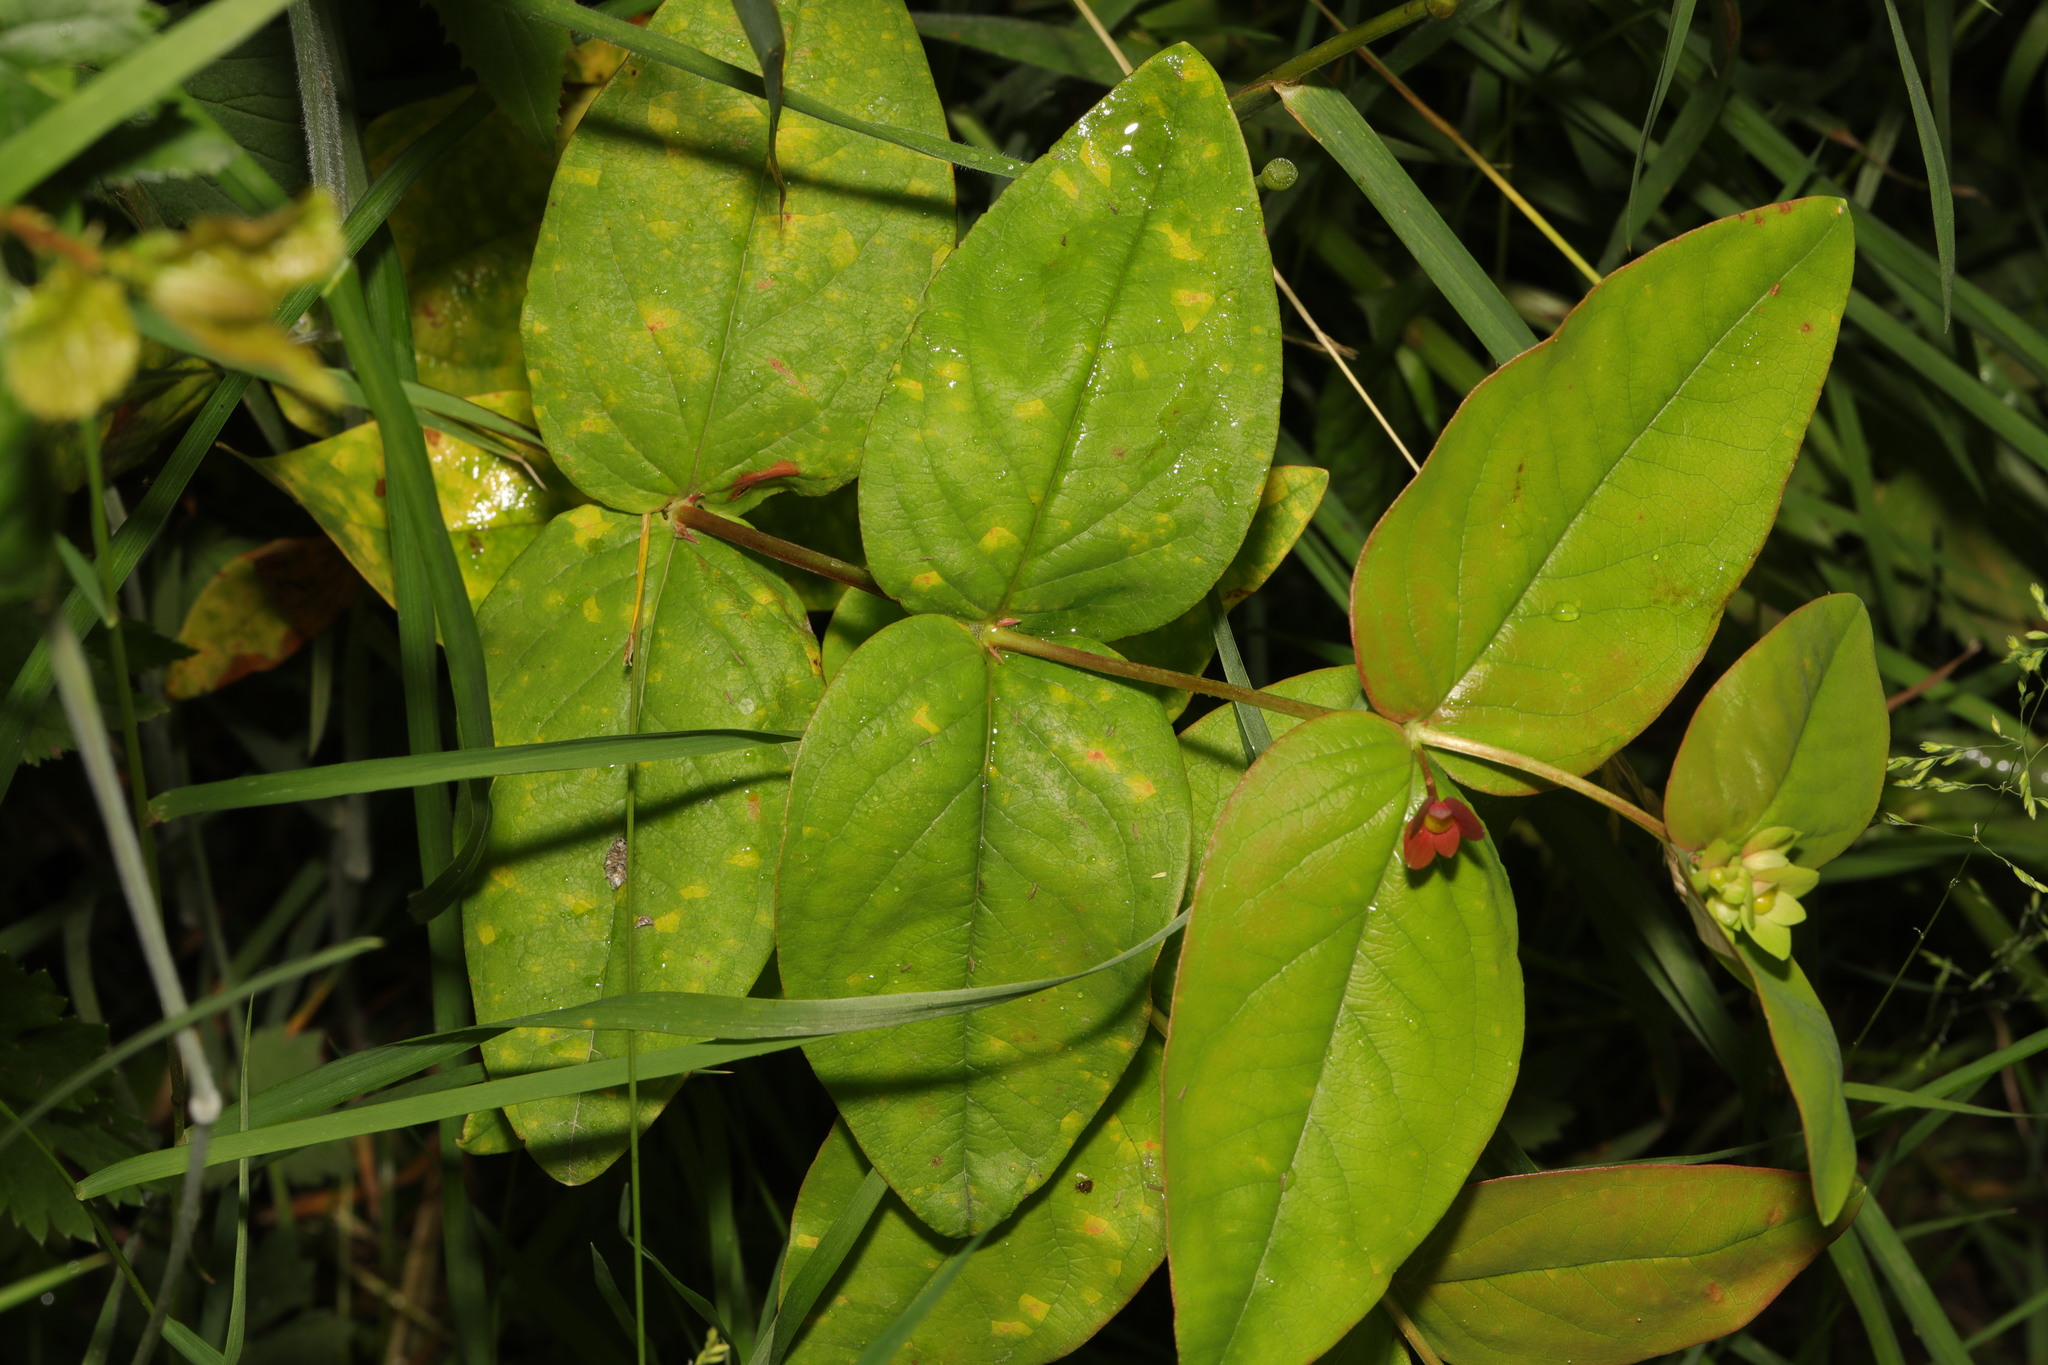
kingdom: Plantae
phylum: Tracheophyta
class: Magnoliopsida
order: Malpighiales
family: Hypericaceae
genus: Hypericum
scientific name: Hypericum androsaemum
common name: Sweet-amber
